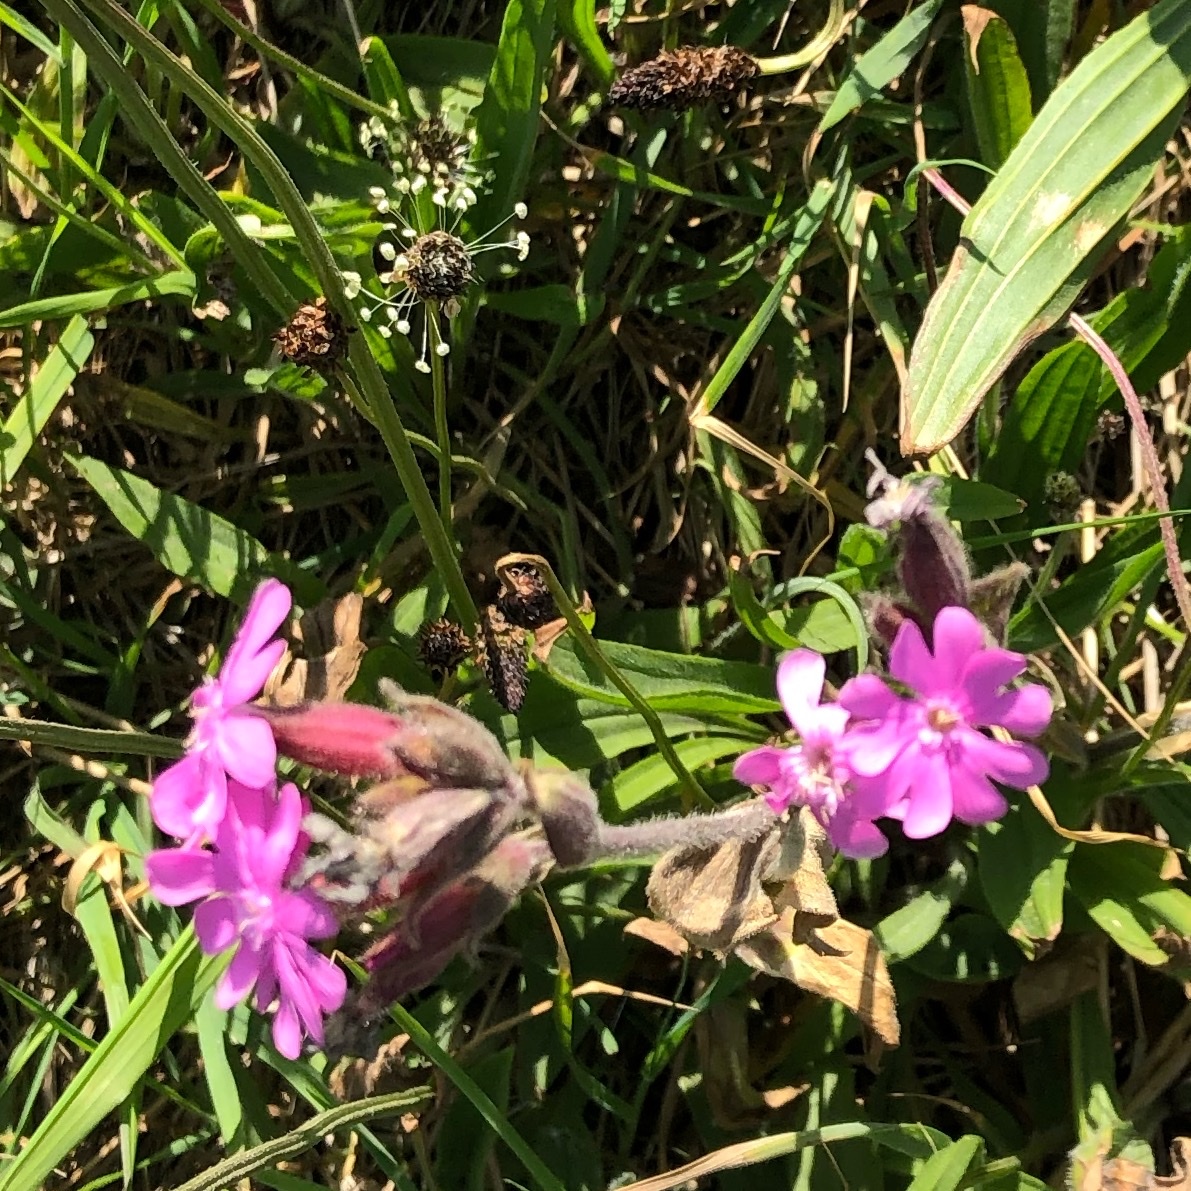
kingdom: Plantae
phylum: Tracheophyta
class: Magnoliopsida
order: Caryophyllales
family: Caryophyllaceae
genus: Silene
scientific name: Silene dioica
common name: Red campion
